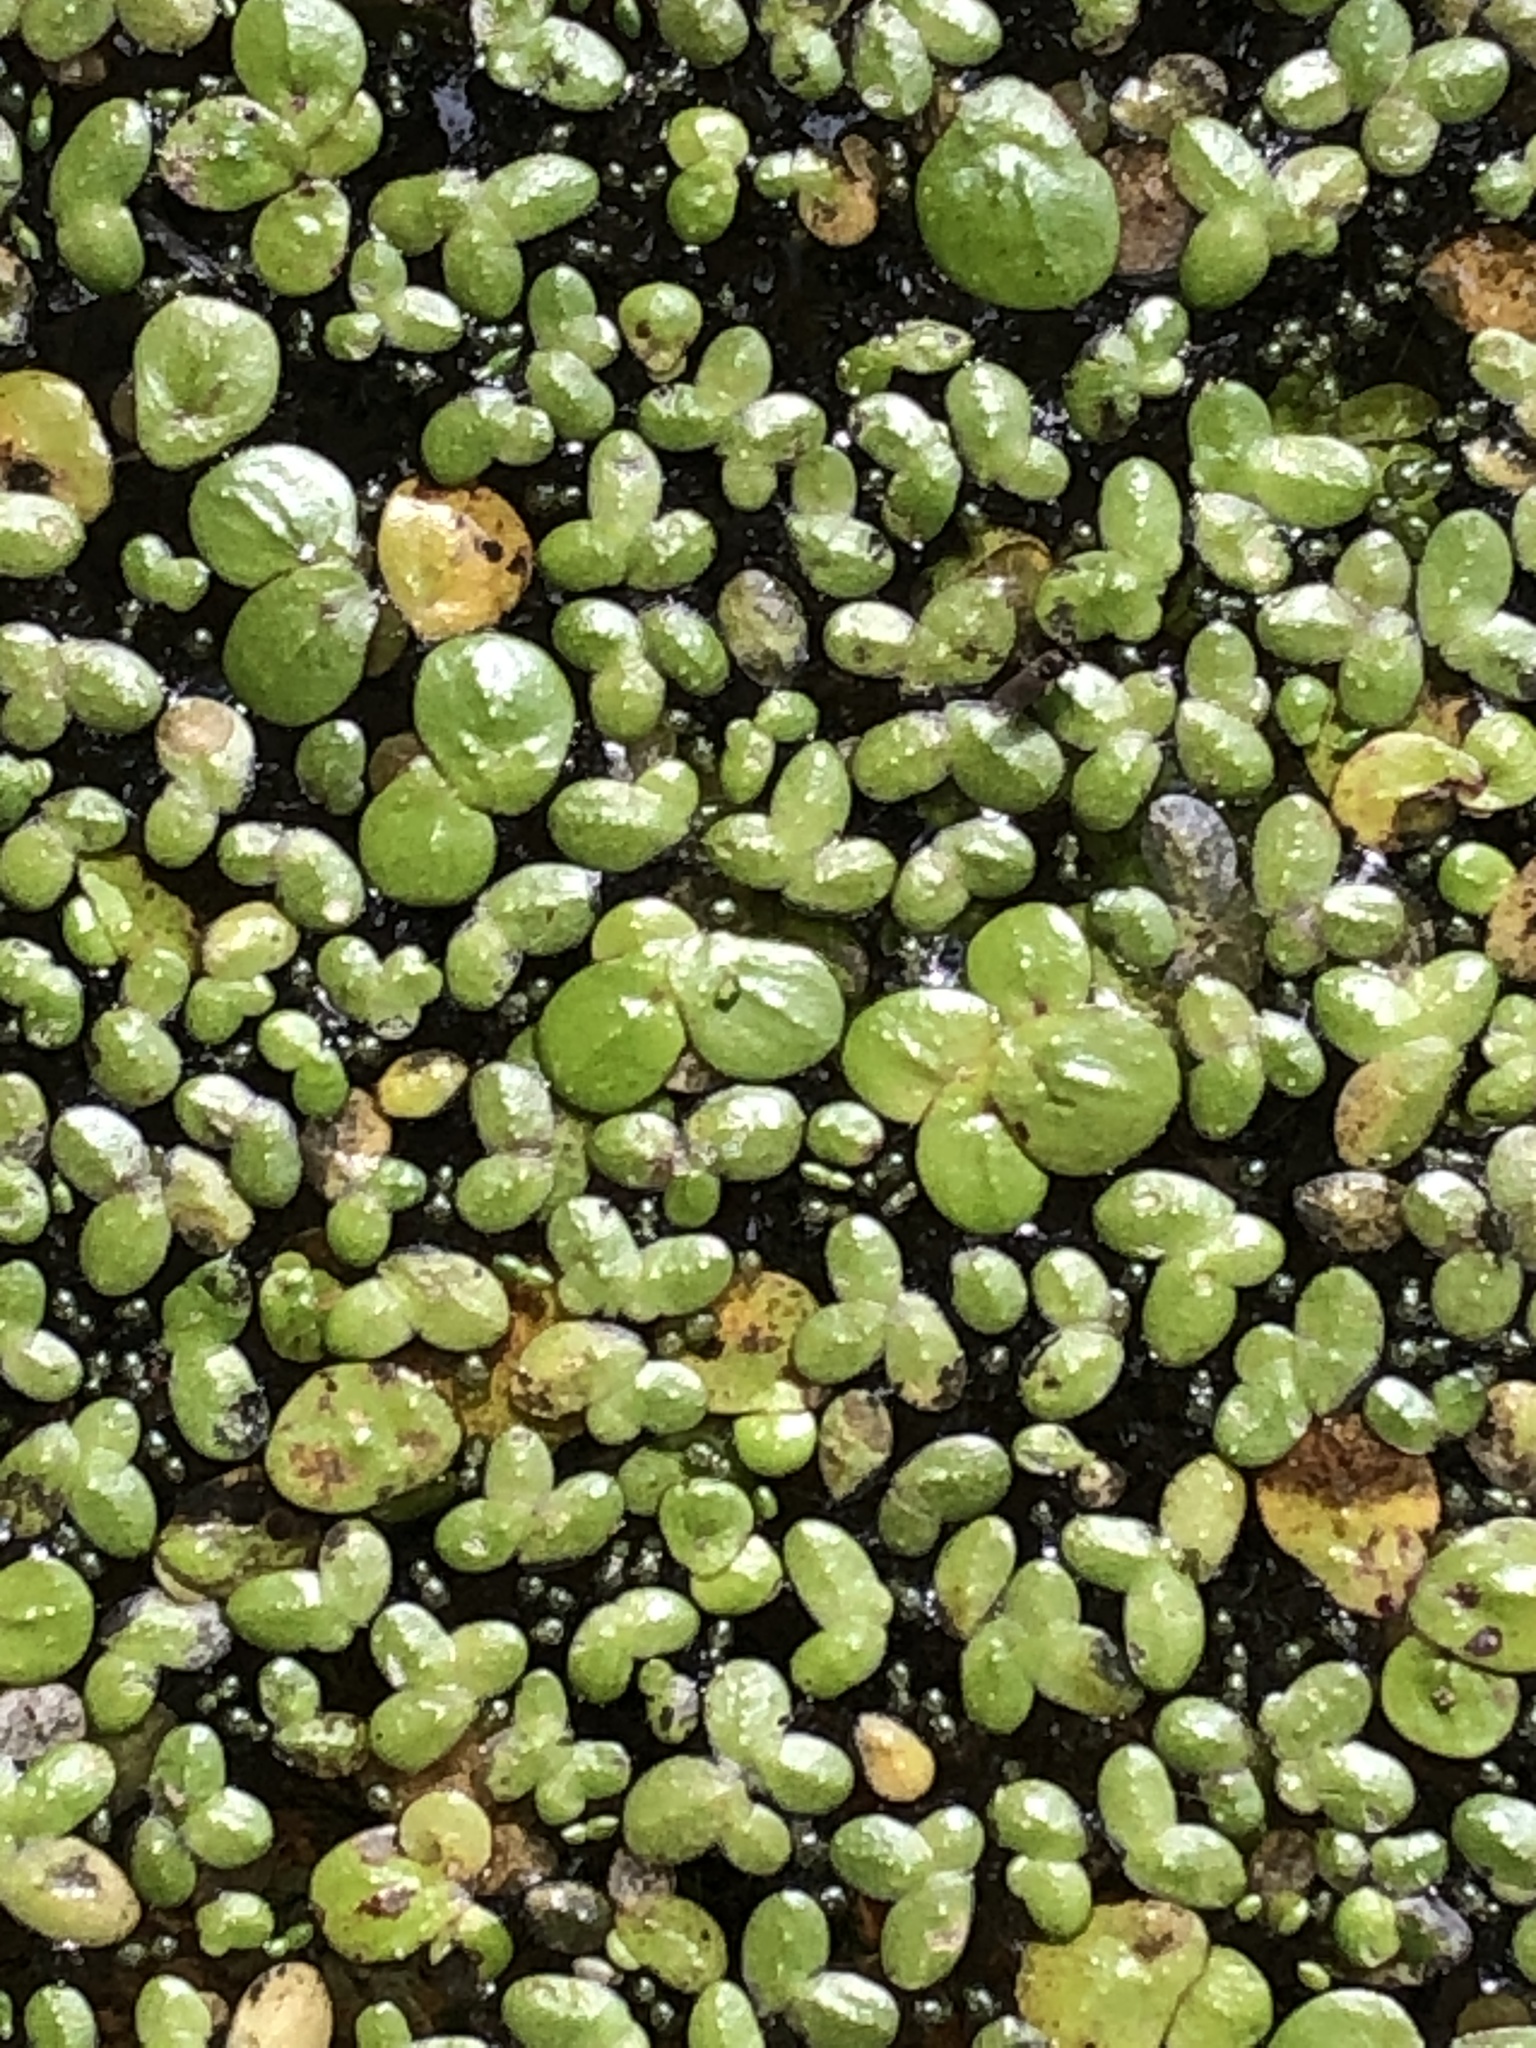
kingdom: Plantae
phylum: Tracheophyta
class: Liliopsida
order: Alismatales
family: Araceae
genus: Spirodela
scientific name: Spirodela polyrhiza
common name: Great duckweed
